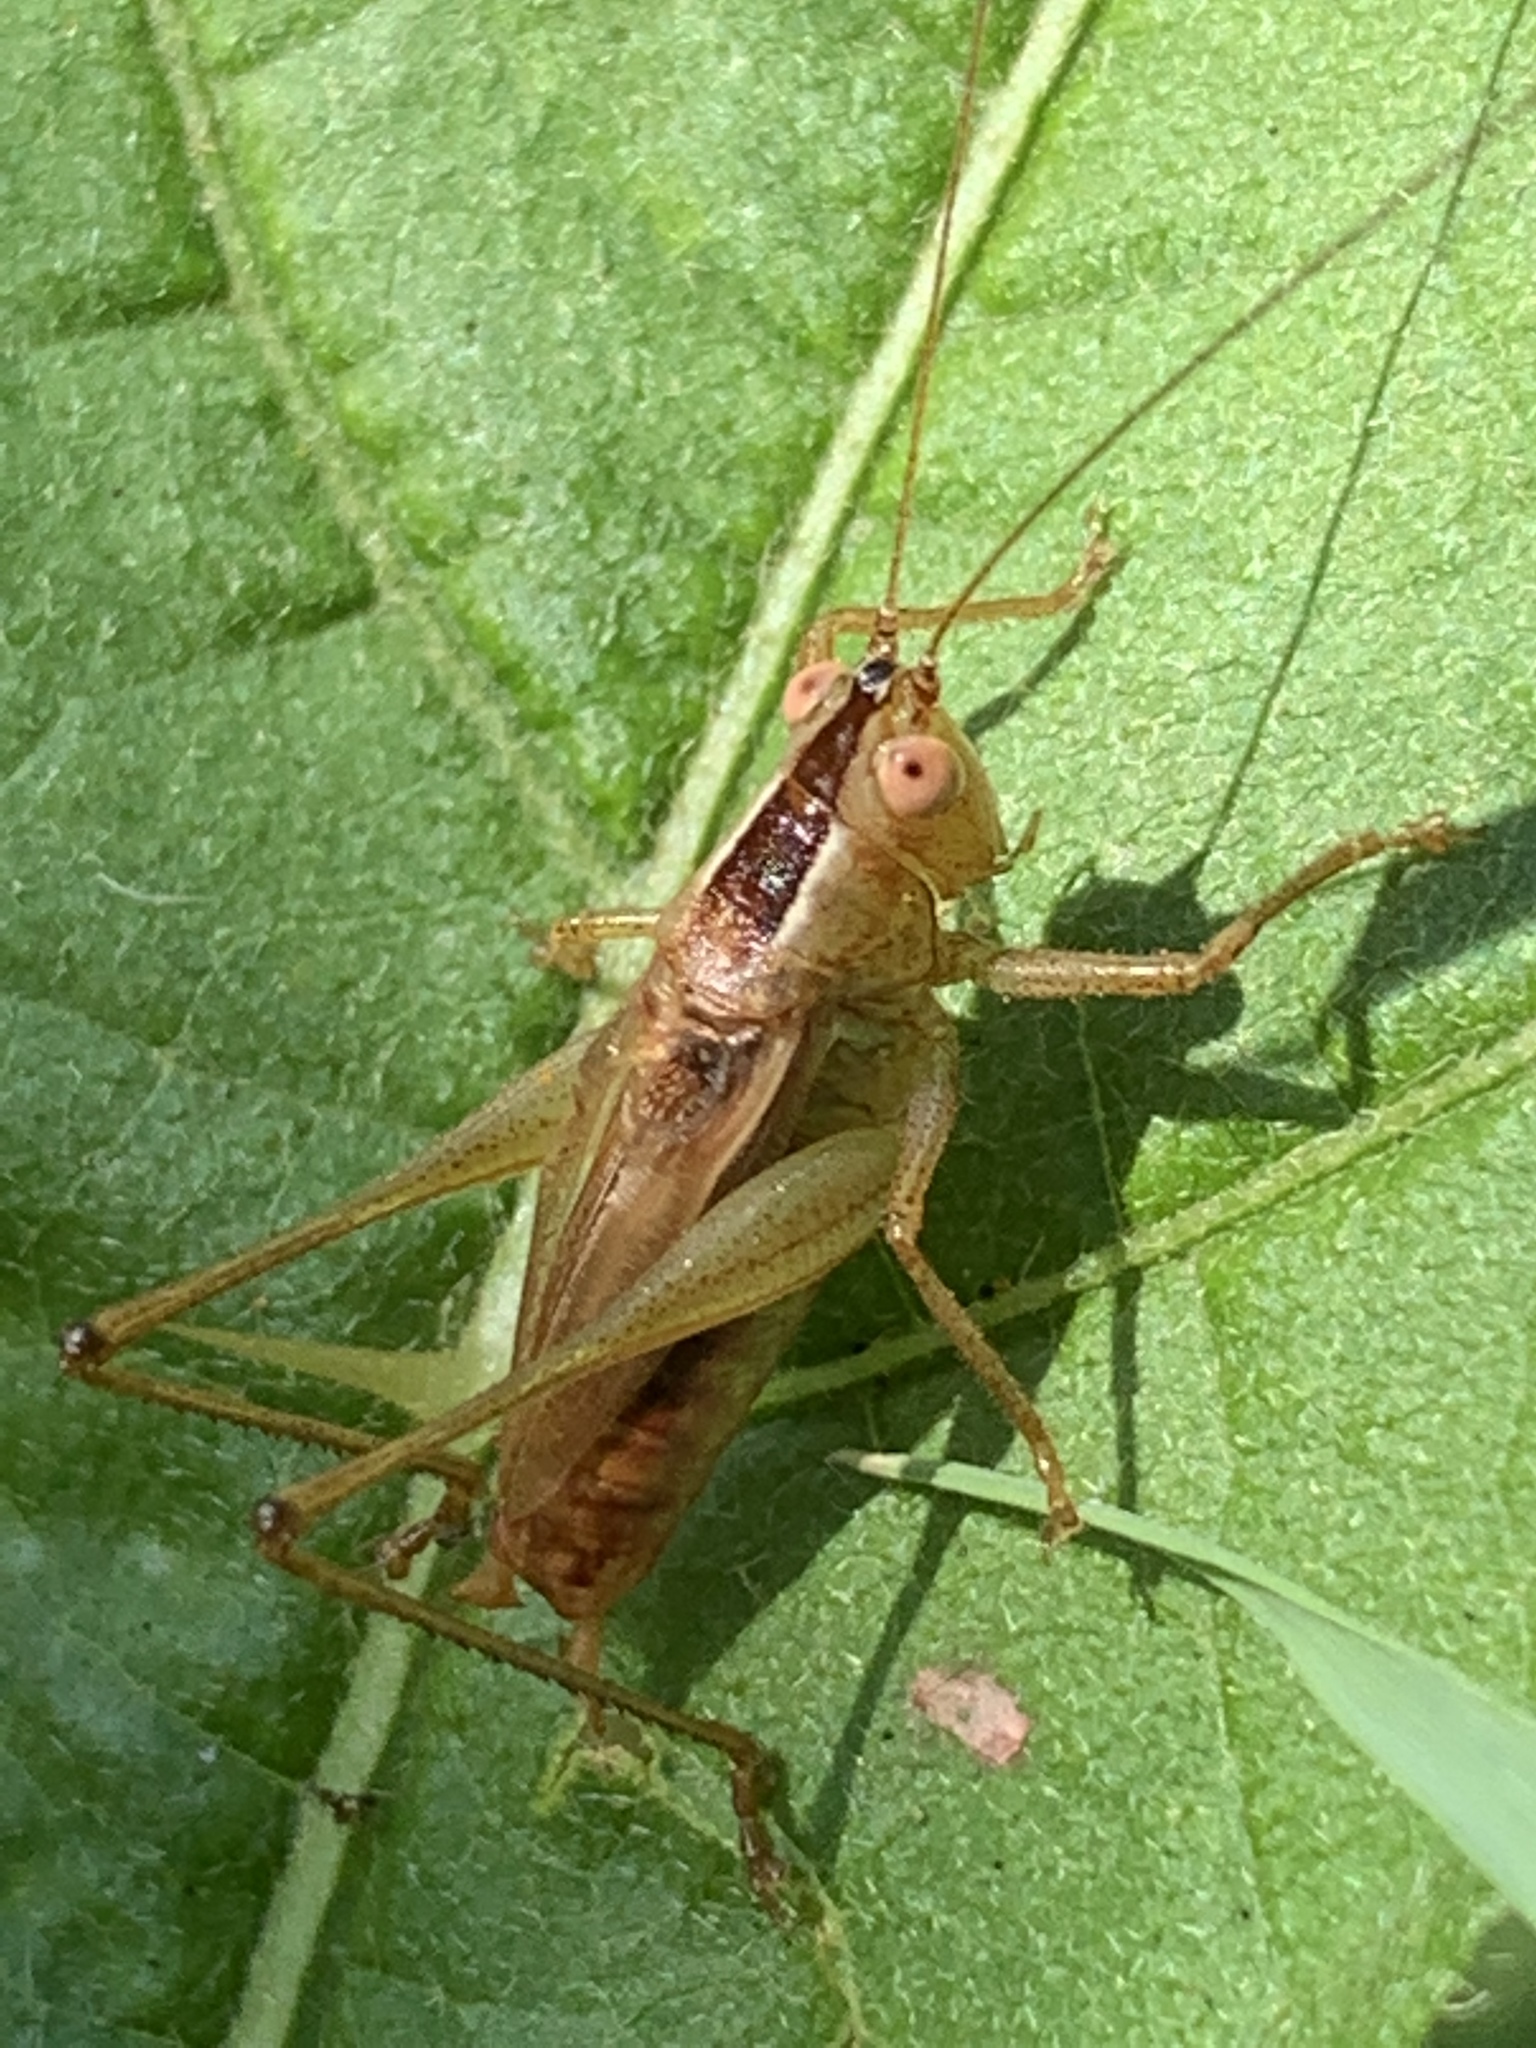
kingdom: Animalia
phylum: Arthropoda
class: Insecta
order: Orthoptera
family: Tettigoniidae
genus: Conocephalus
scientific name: Conocephalus brevipennis
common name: Short-winged meadow katydid
